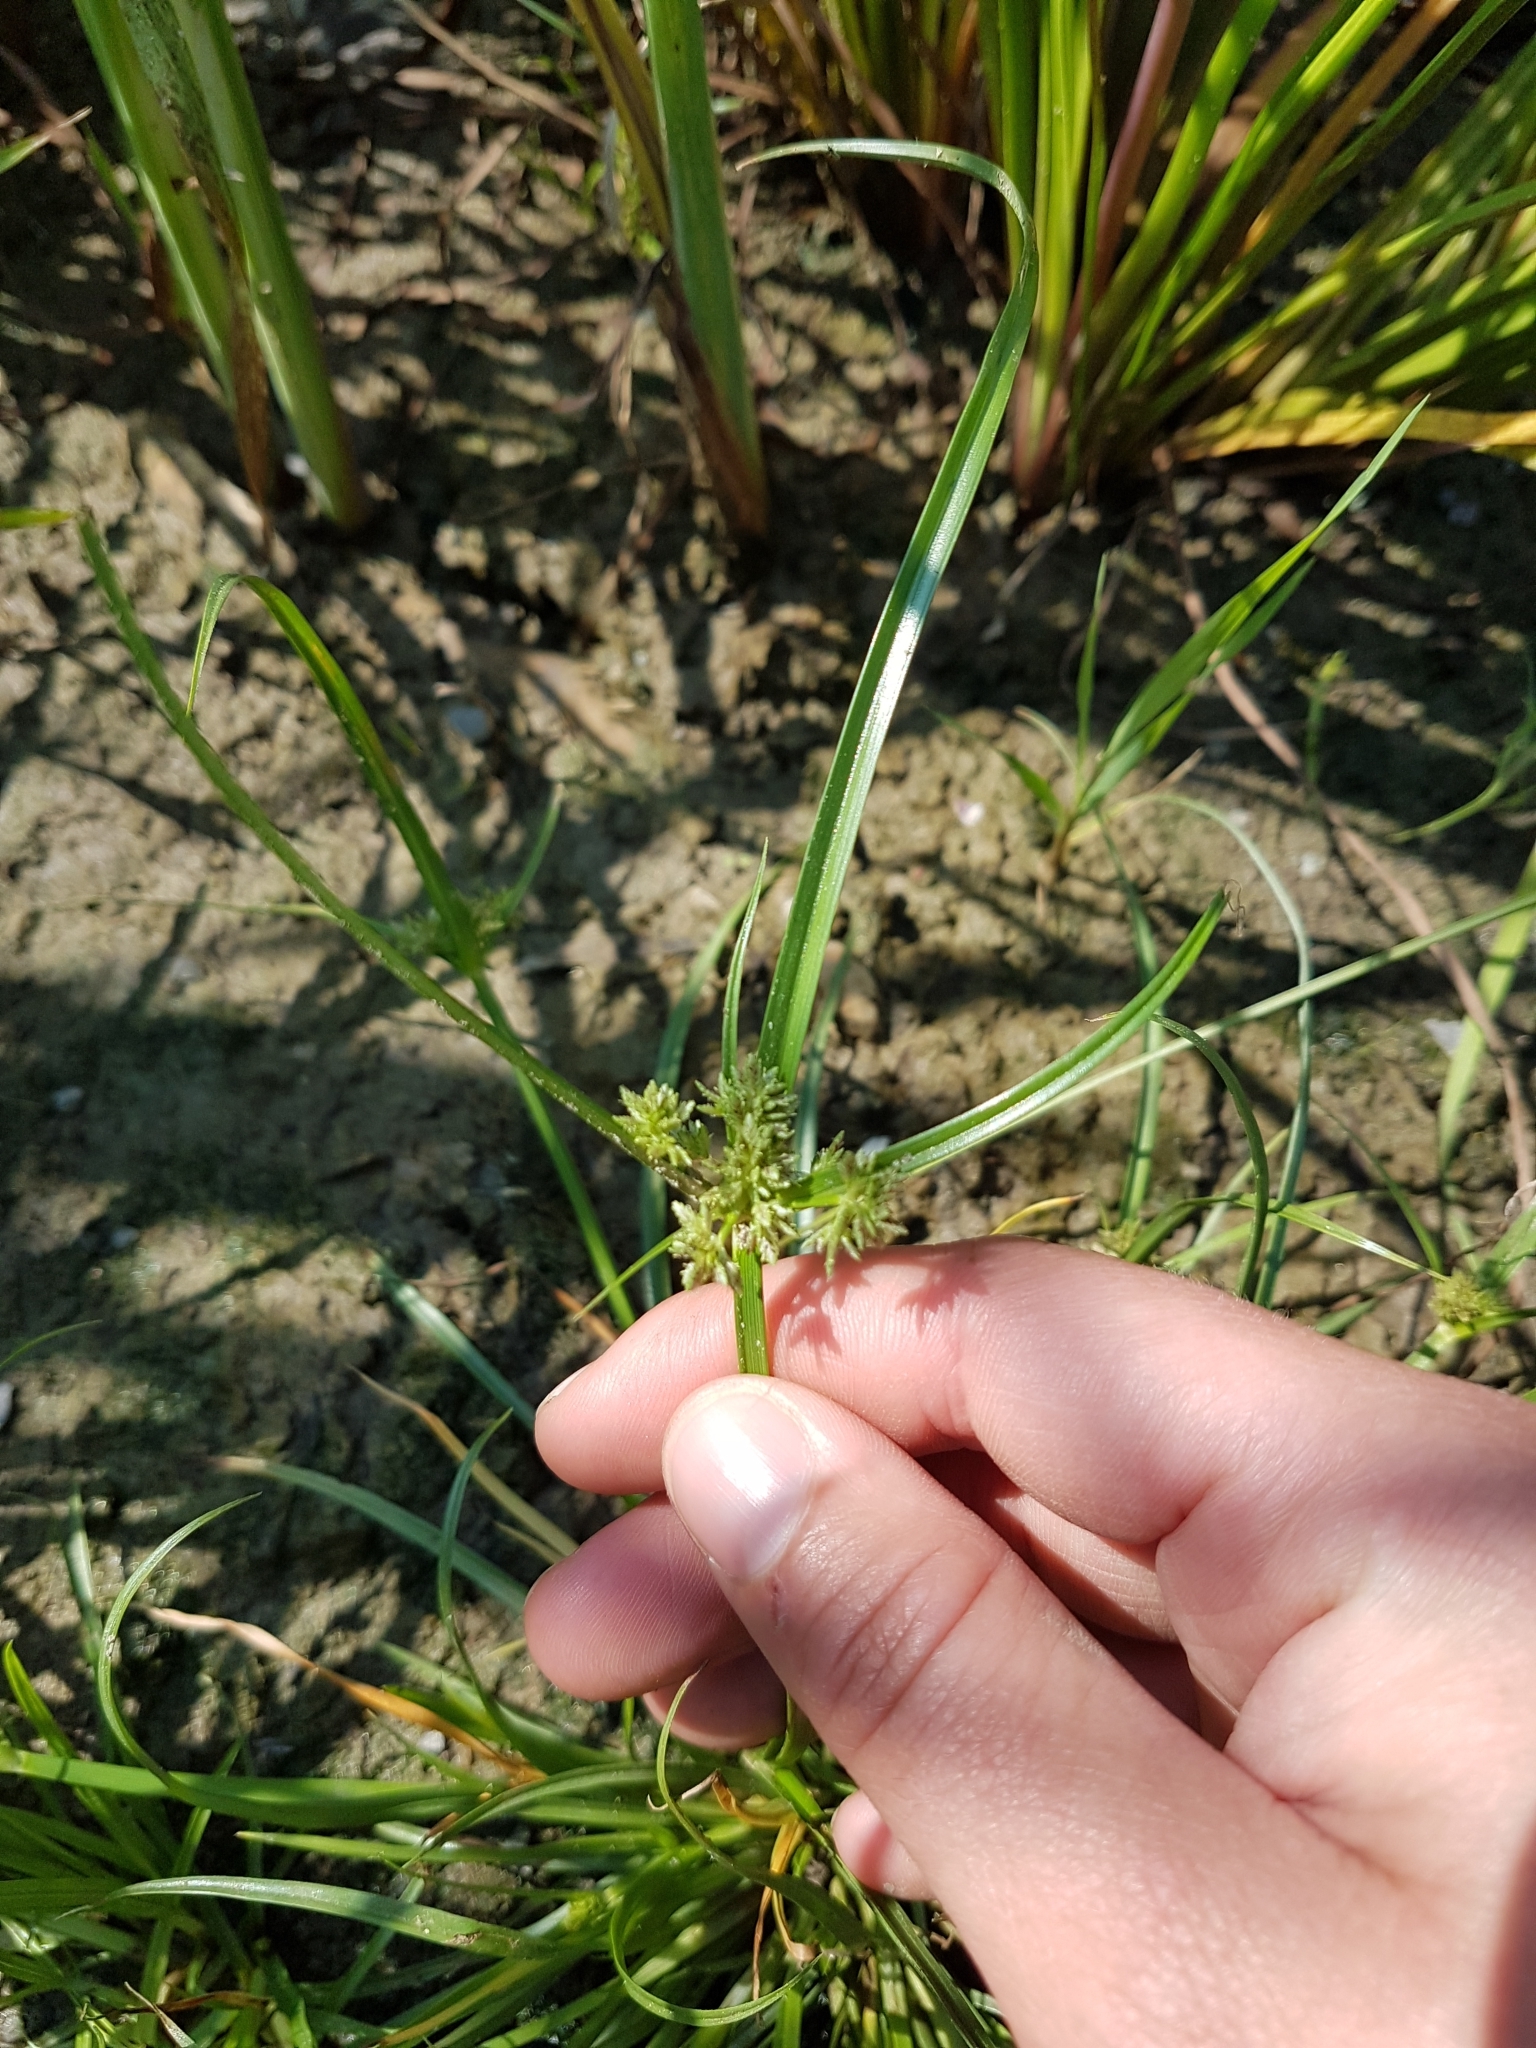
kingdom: Plantae
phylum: Tracheophyta
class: Liliopsida
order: Poales
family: Cyperaceae
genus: Cyperus
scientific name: Cyperus fuscus
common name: Brown galingale
